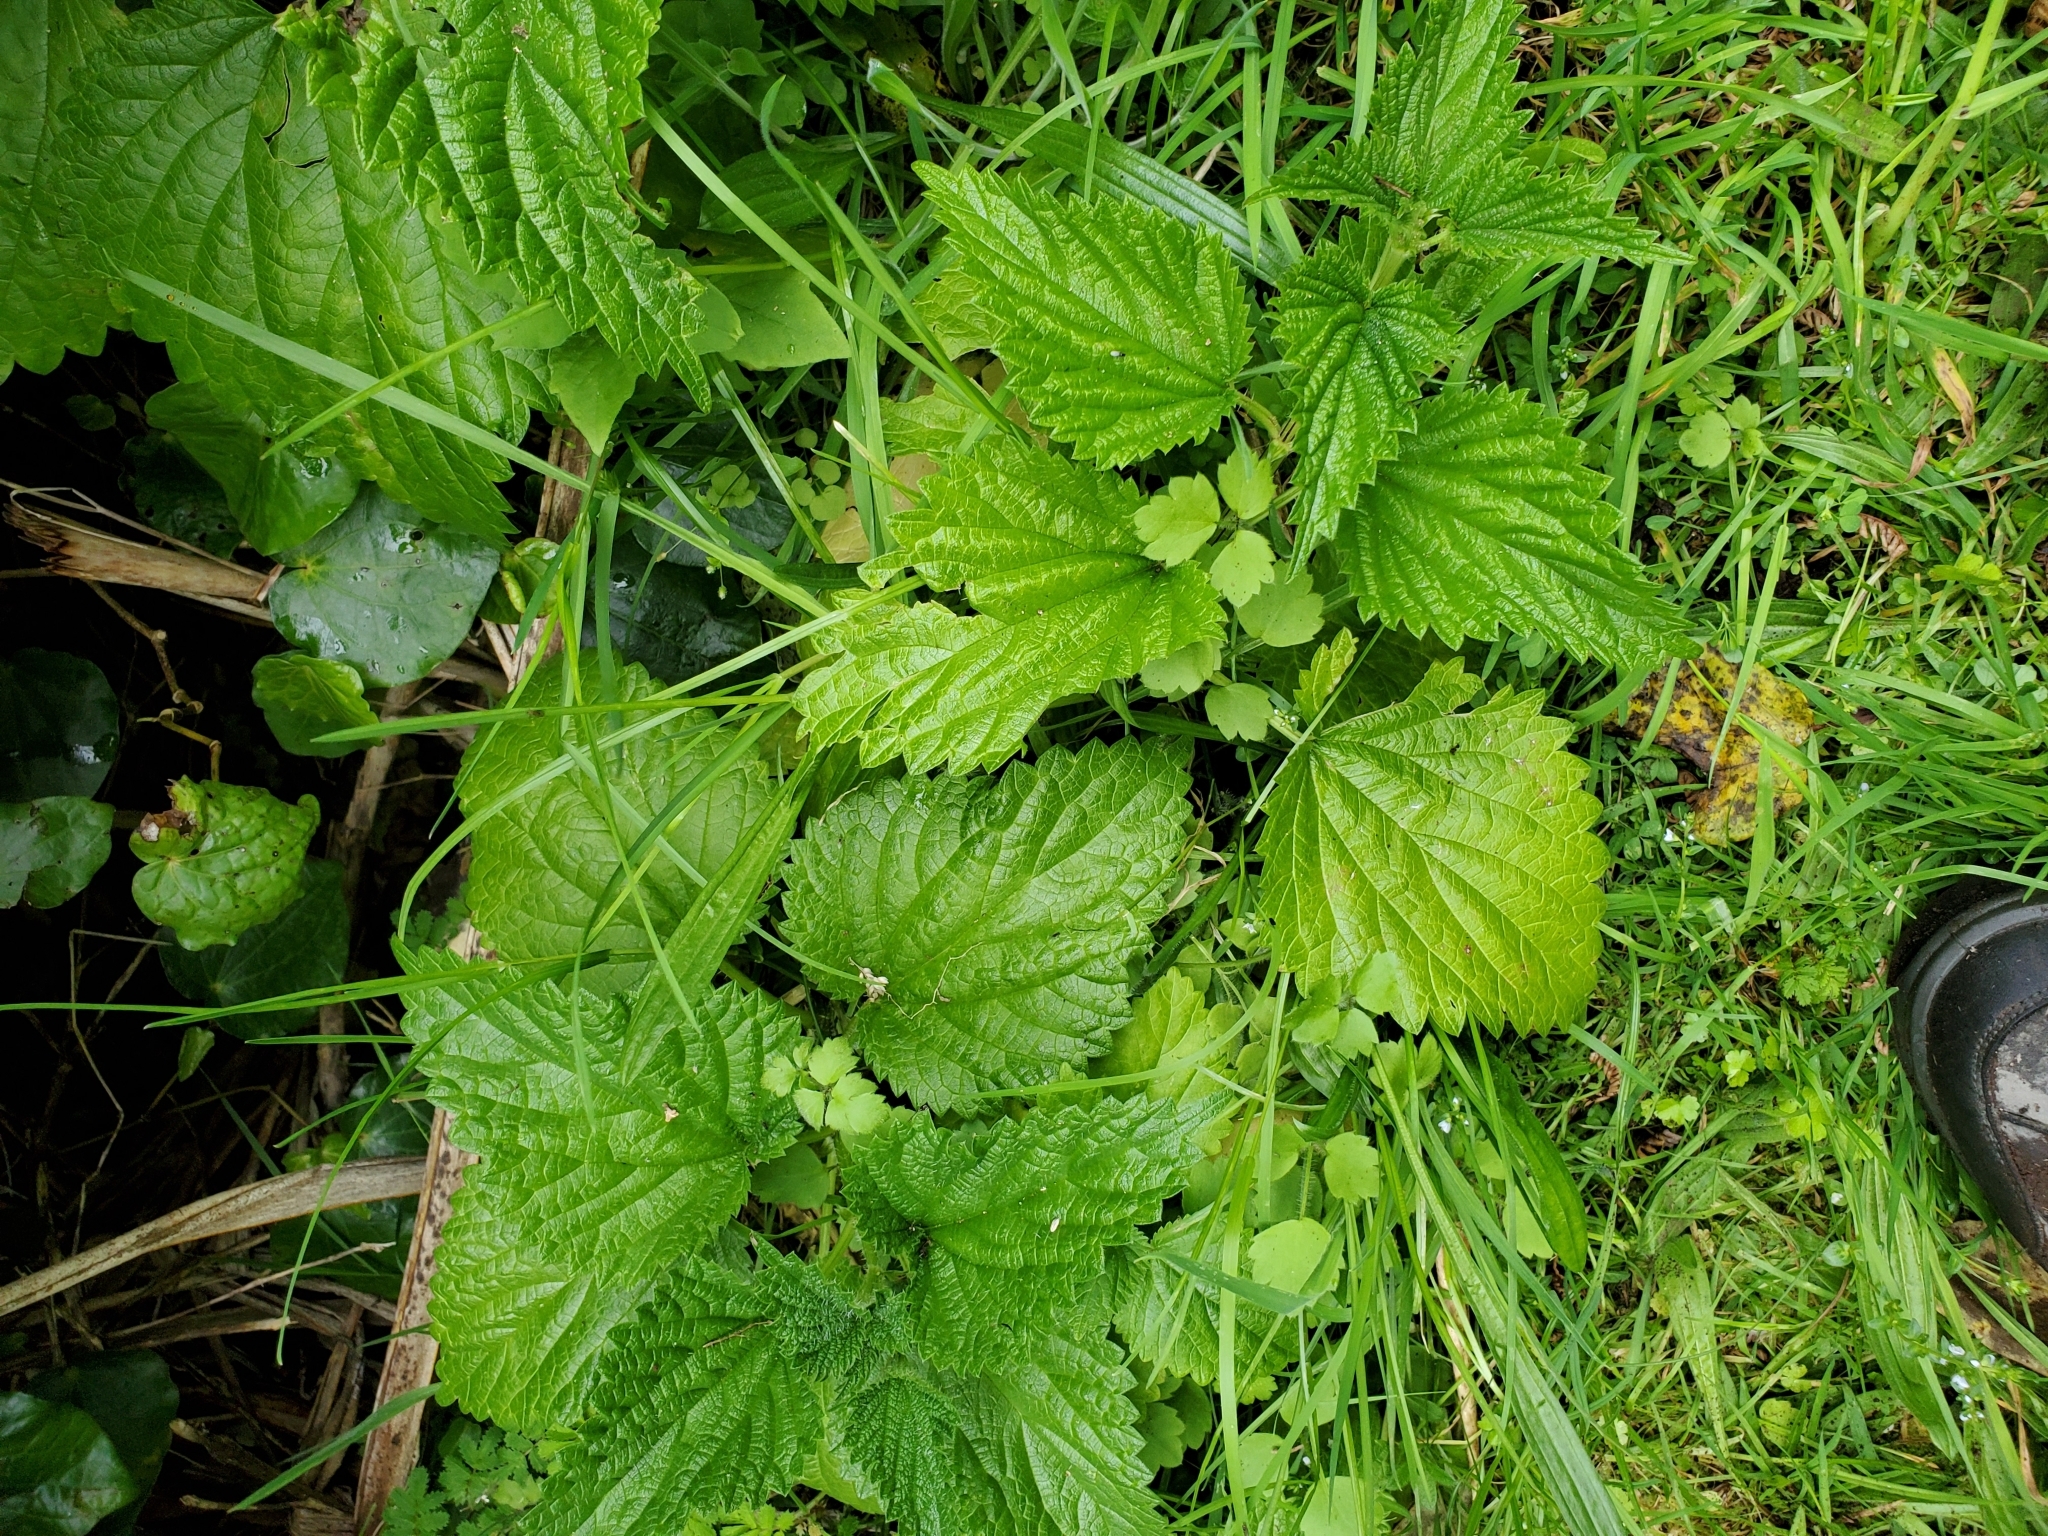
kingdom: Plantae
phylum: Tracheophyta
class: Magnoliopsida
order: Rosales
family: Urticaceae
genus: Urtica
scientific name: Urtica australis
